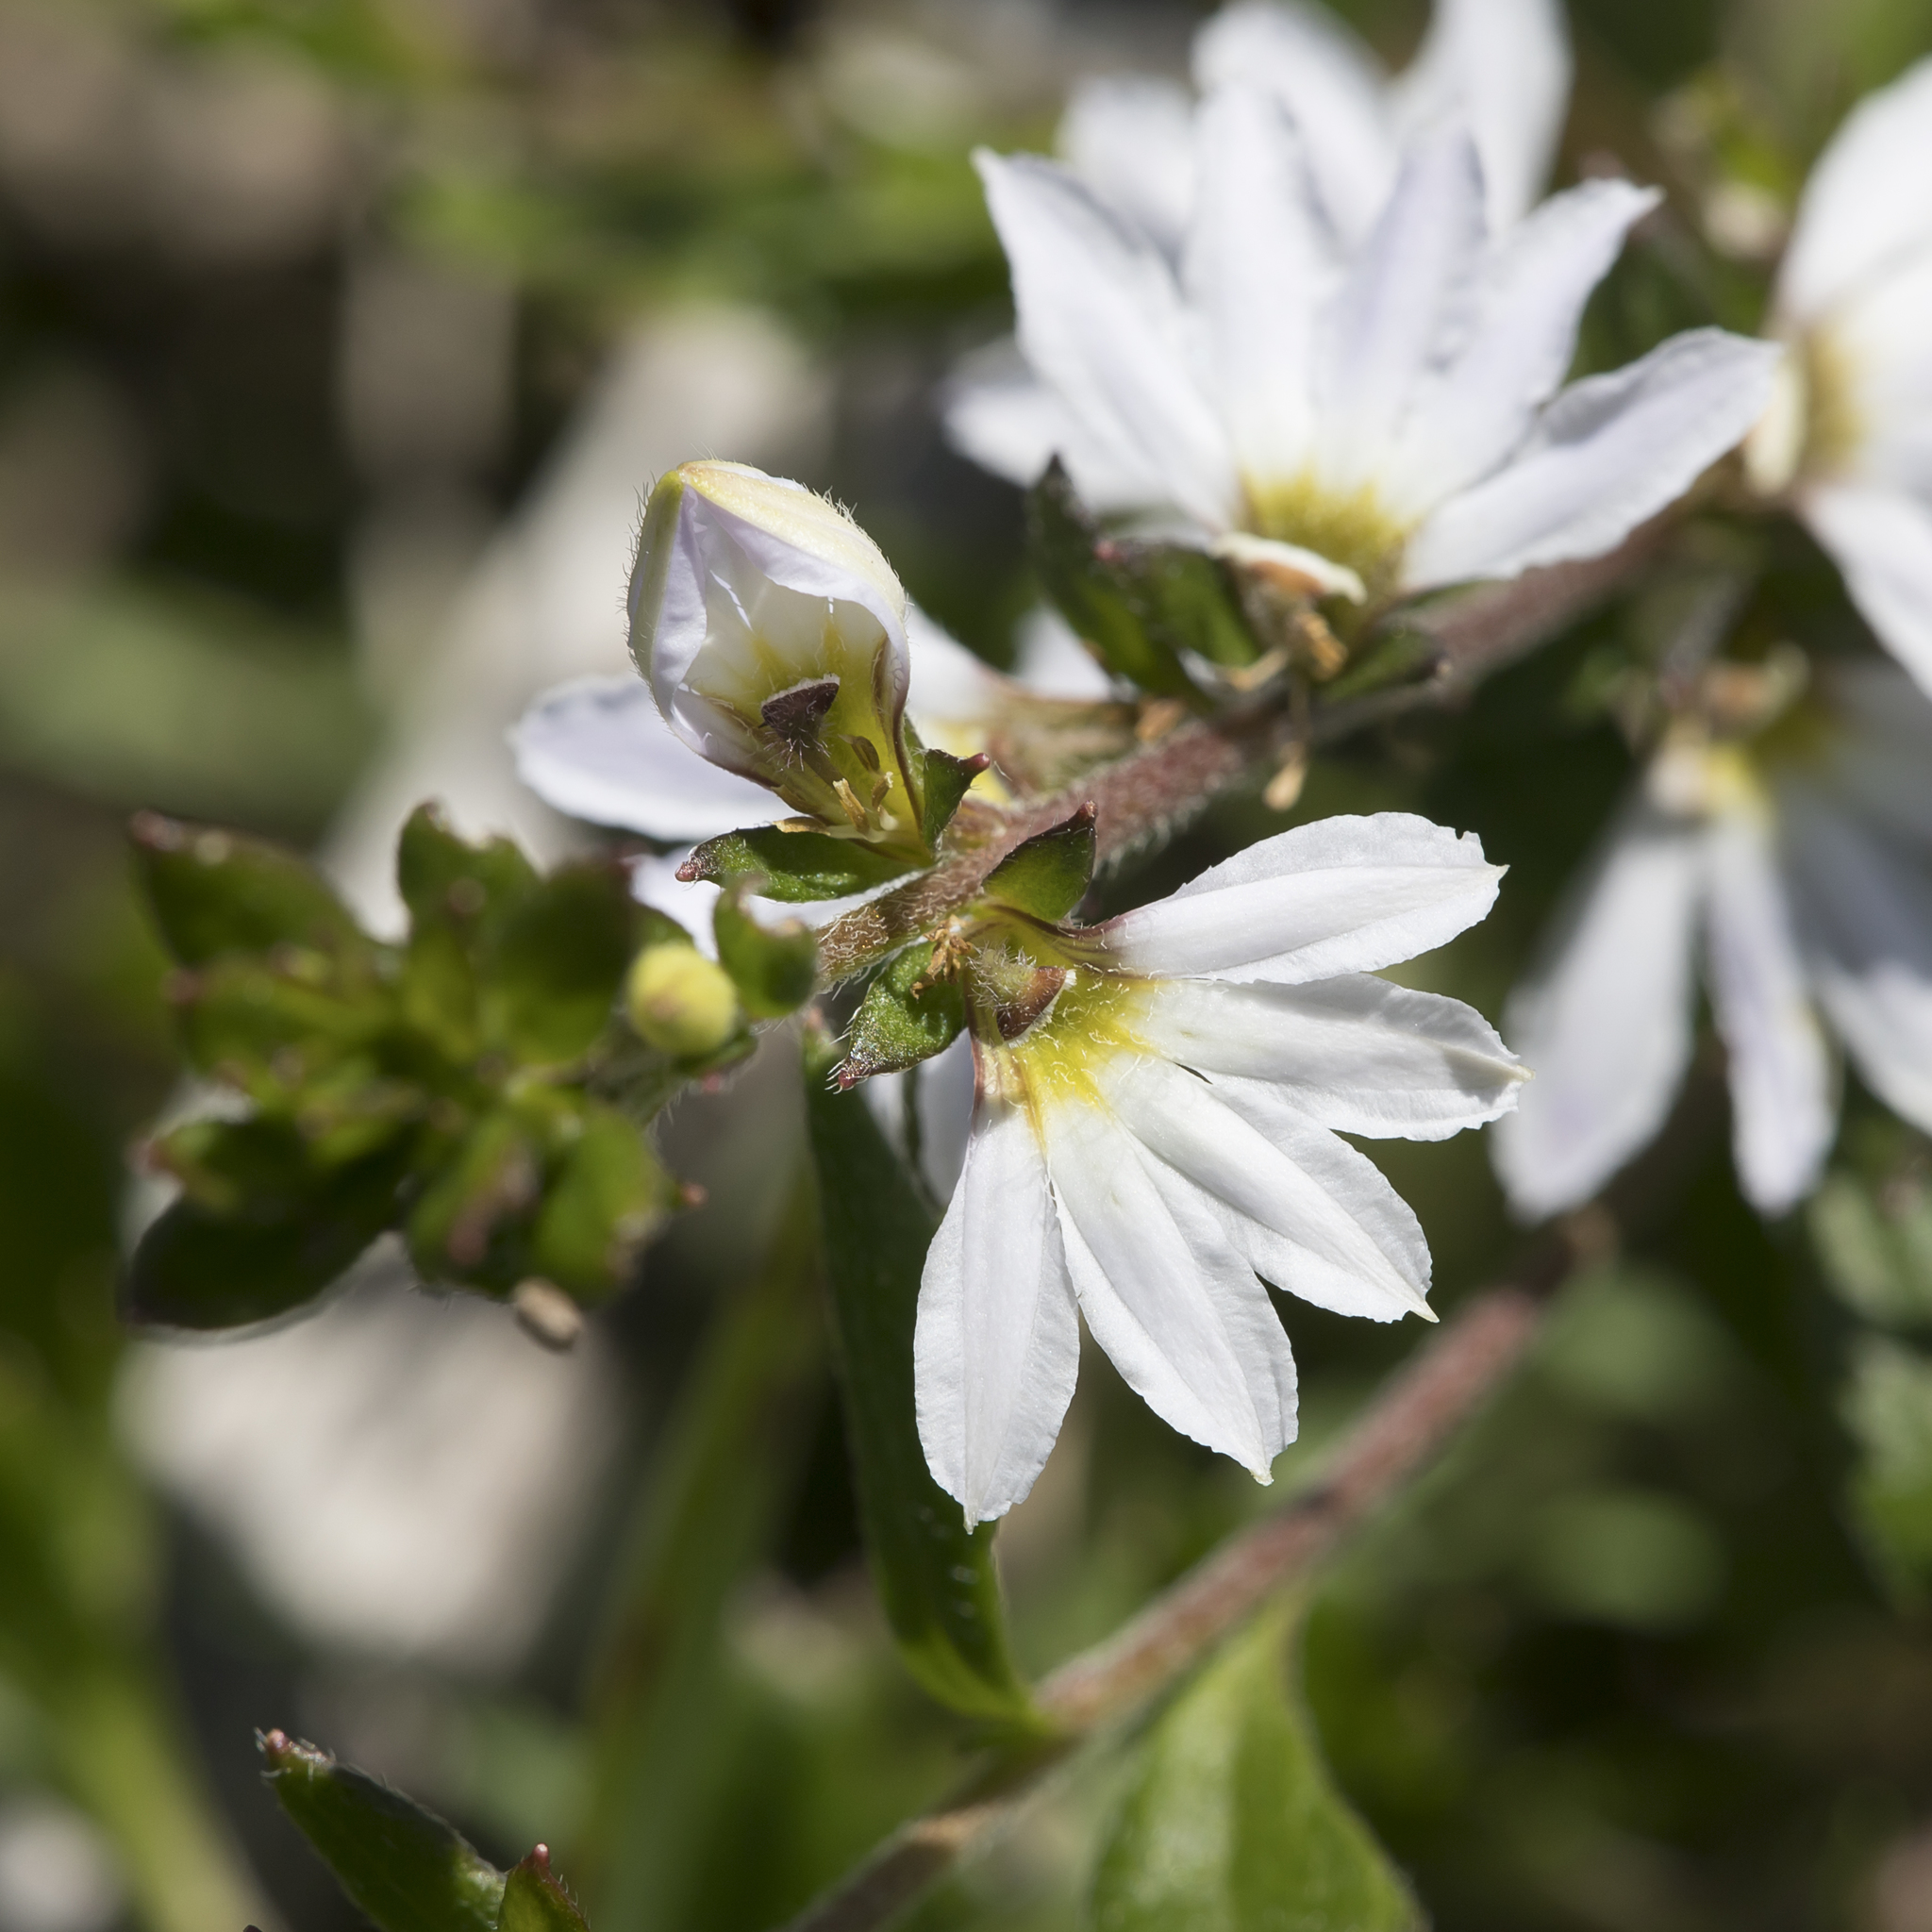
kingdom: Plantae
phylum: Tracheophyta
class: Magnoliopsida
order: Asterales
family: Goodeniaceae
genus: Scaevola
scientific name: Scaevola albida
